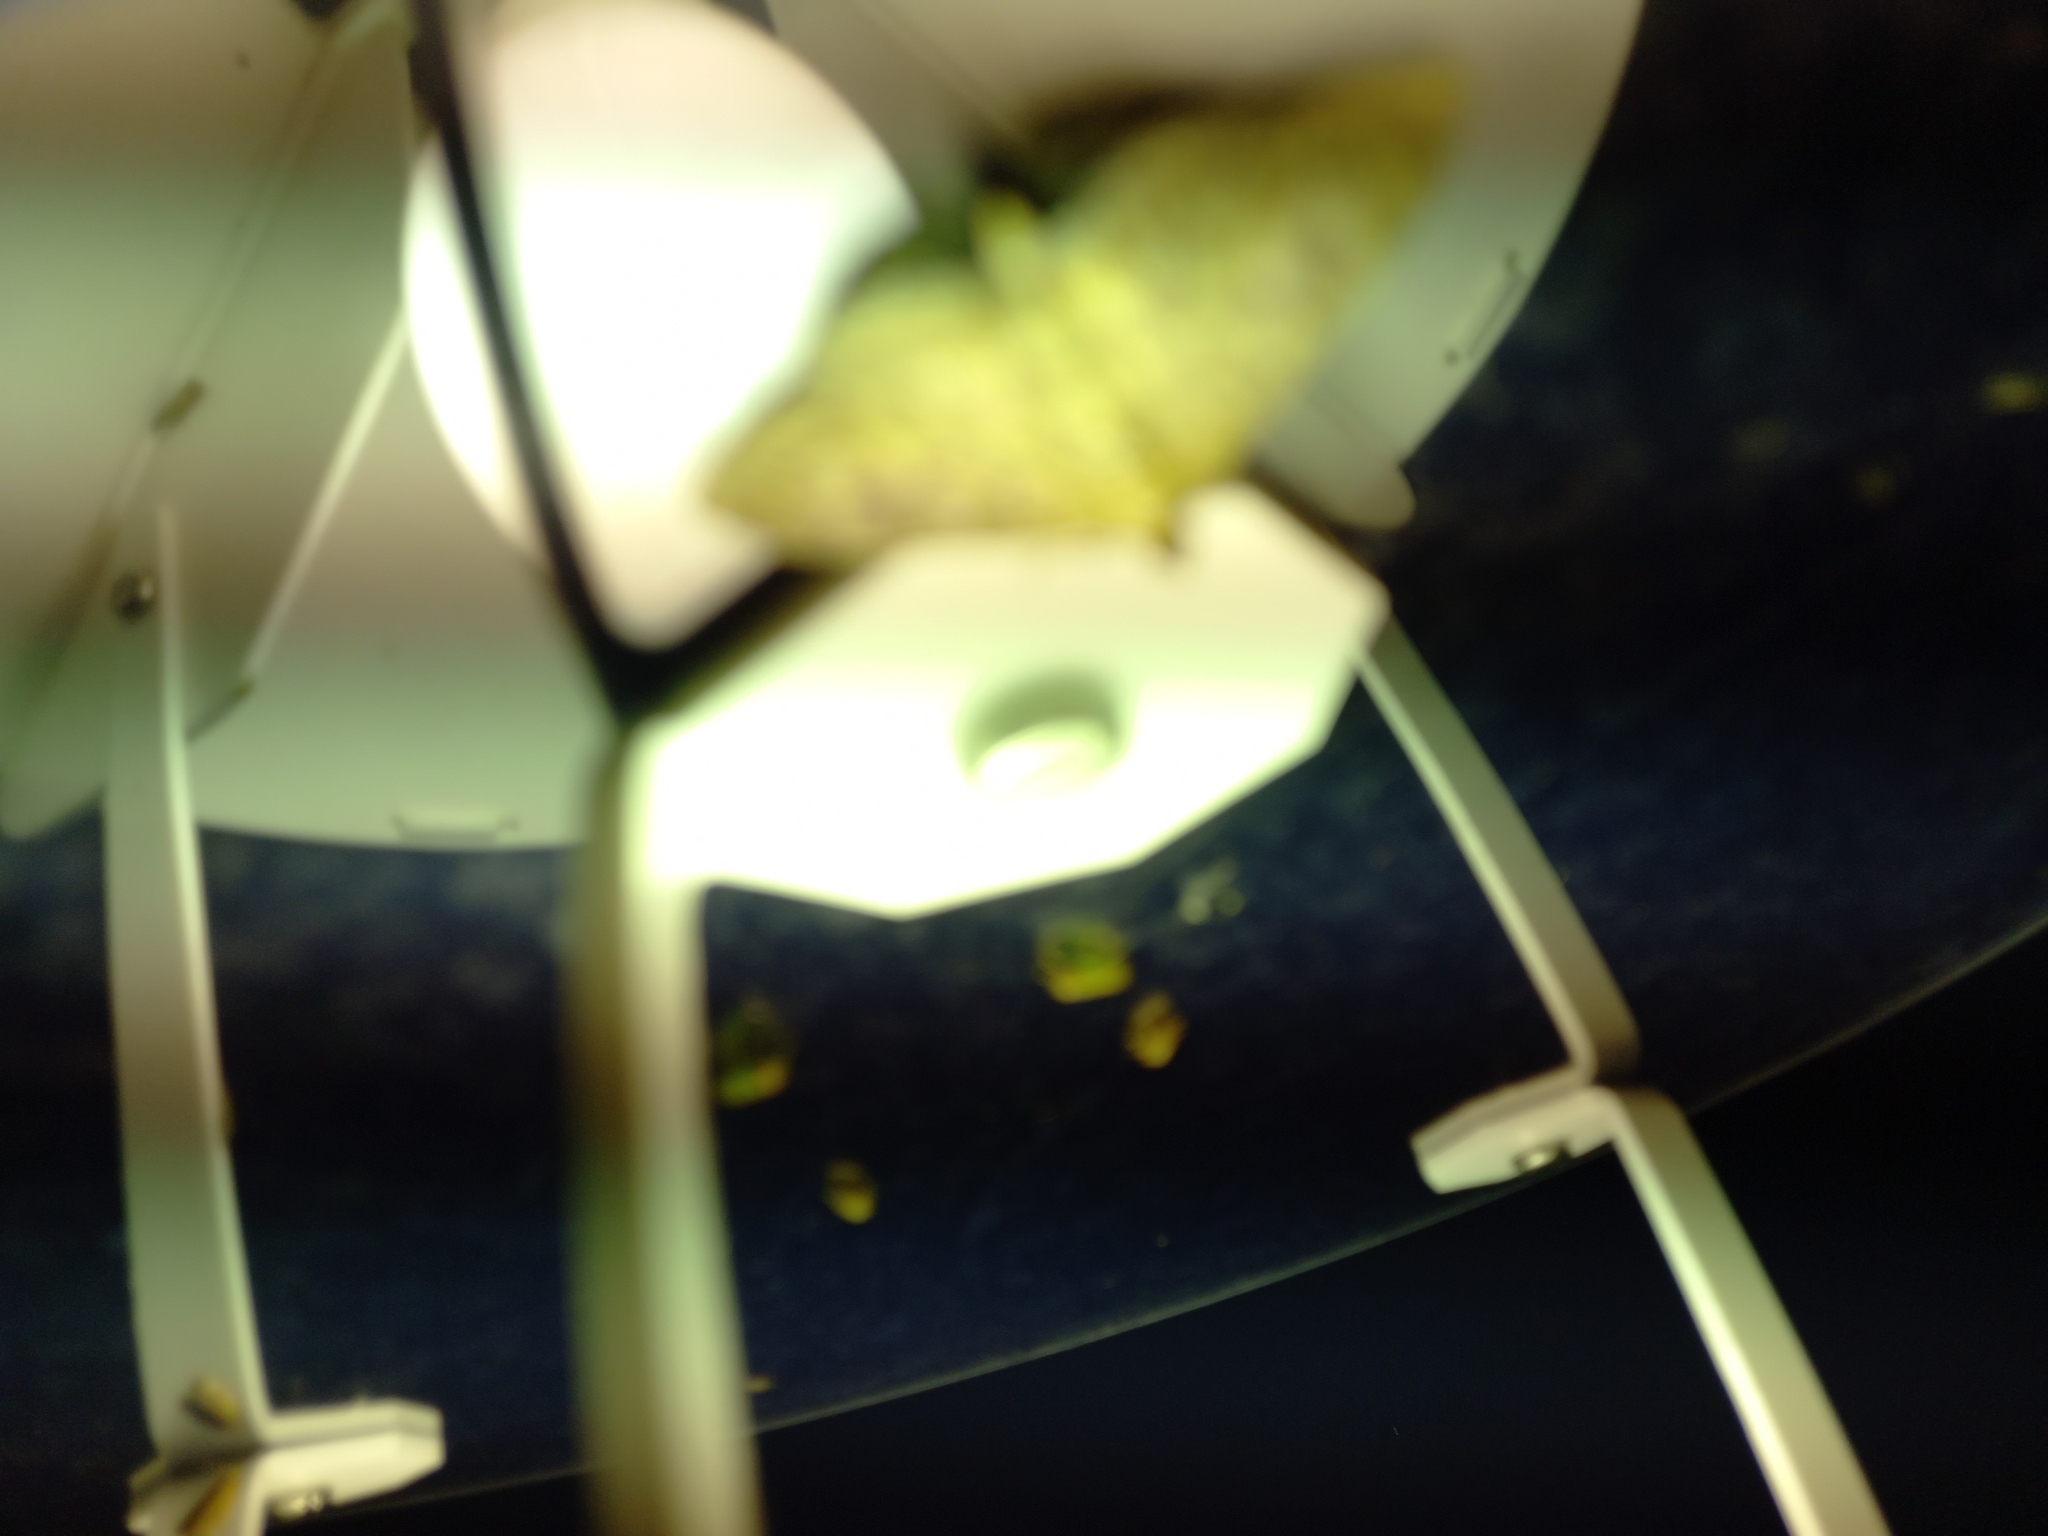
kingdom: Animalia
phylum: Arthropoda
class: Insecta
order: Lepidoptera
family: Crambidae
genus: Patania
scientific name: Patania ruralis
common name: Mother of pearl
